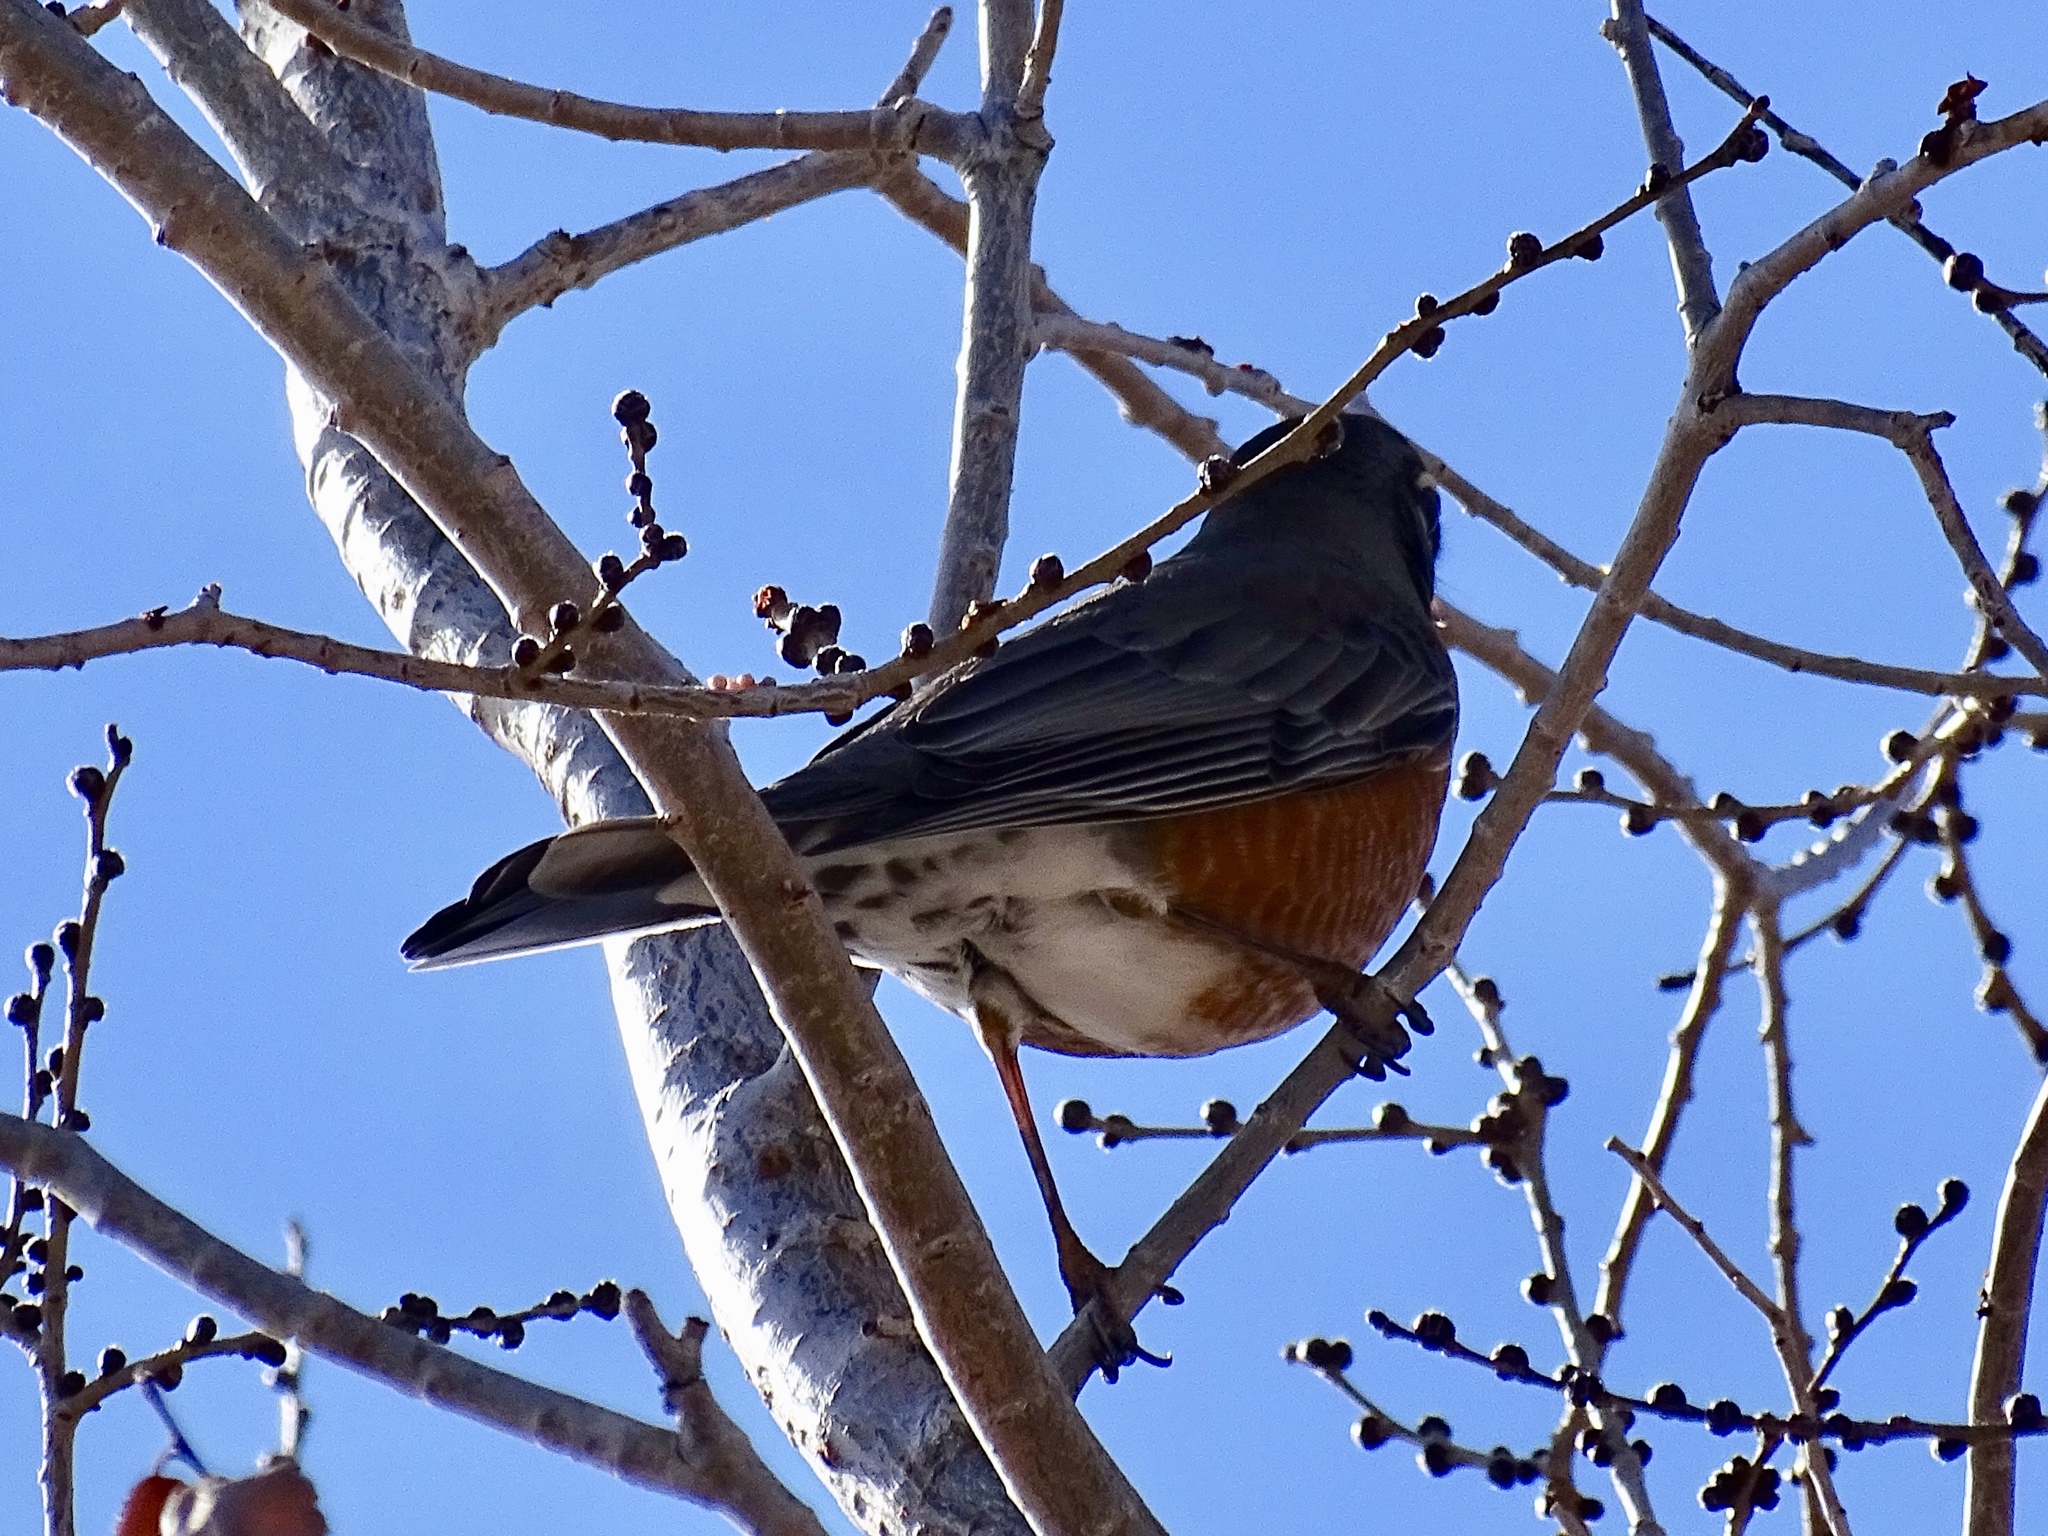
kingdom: Animalia
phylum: Chordata
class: Aves
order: Passeriformes
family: Turdidae
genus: Turdus
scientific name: Turdus migratorius
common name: American robin
